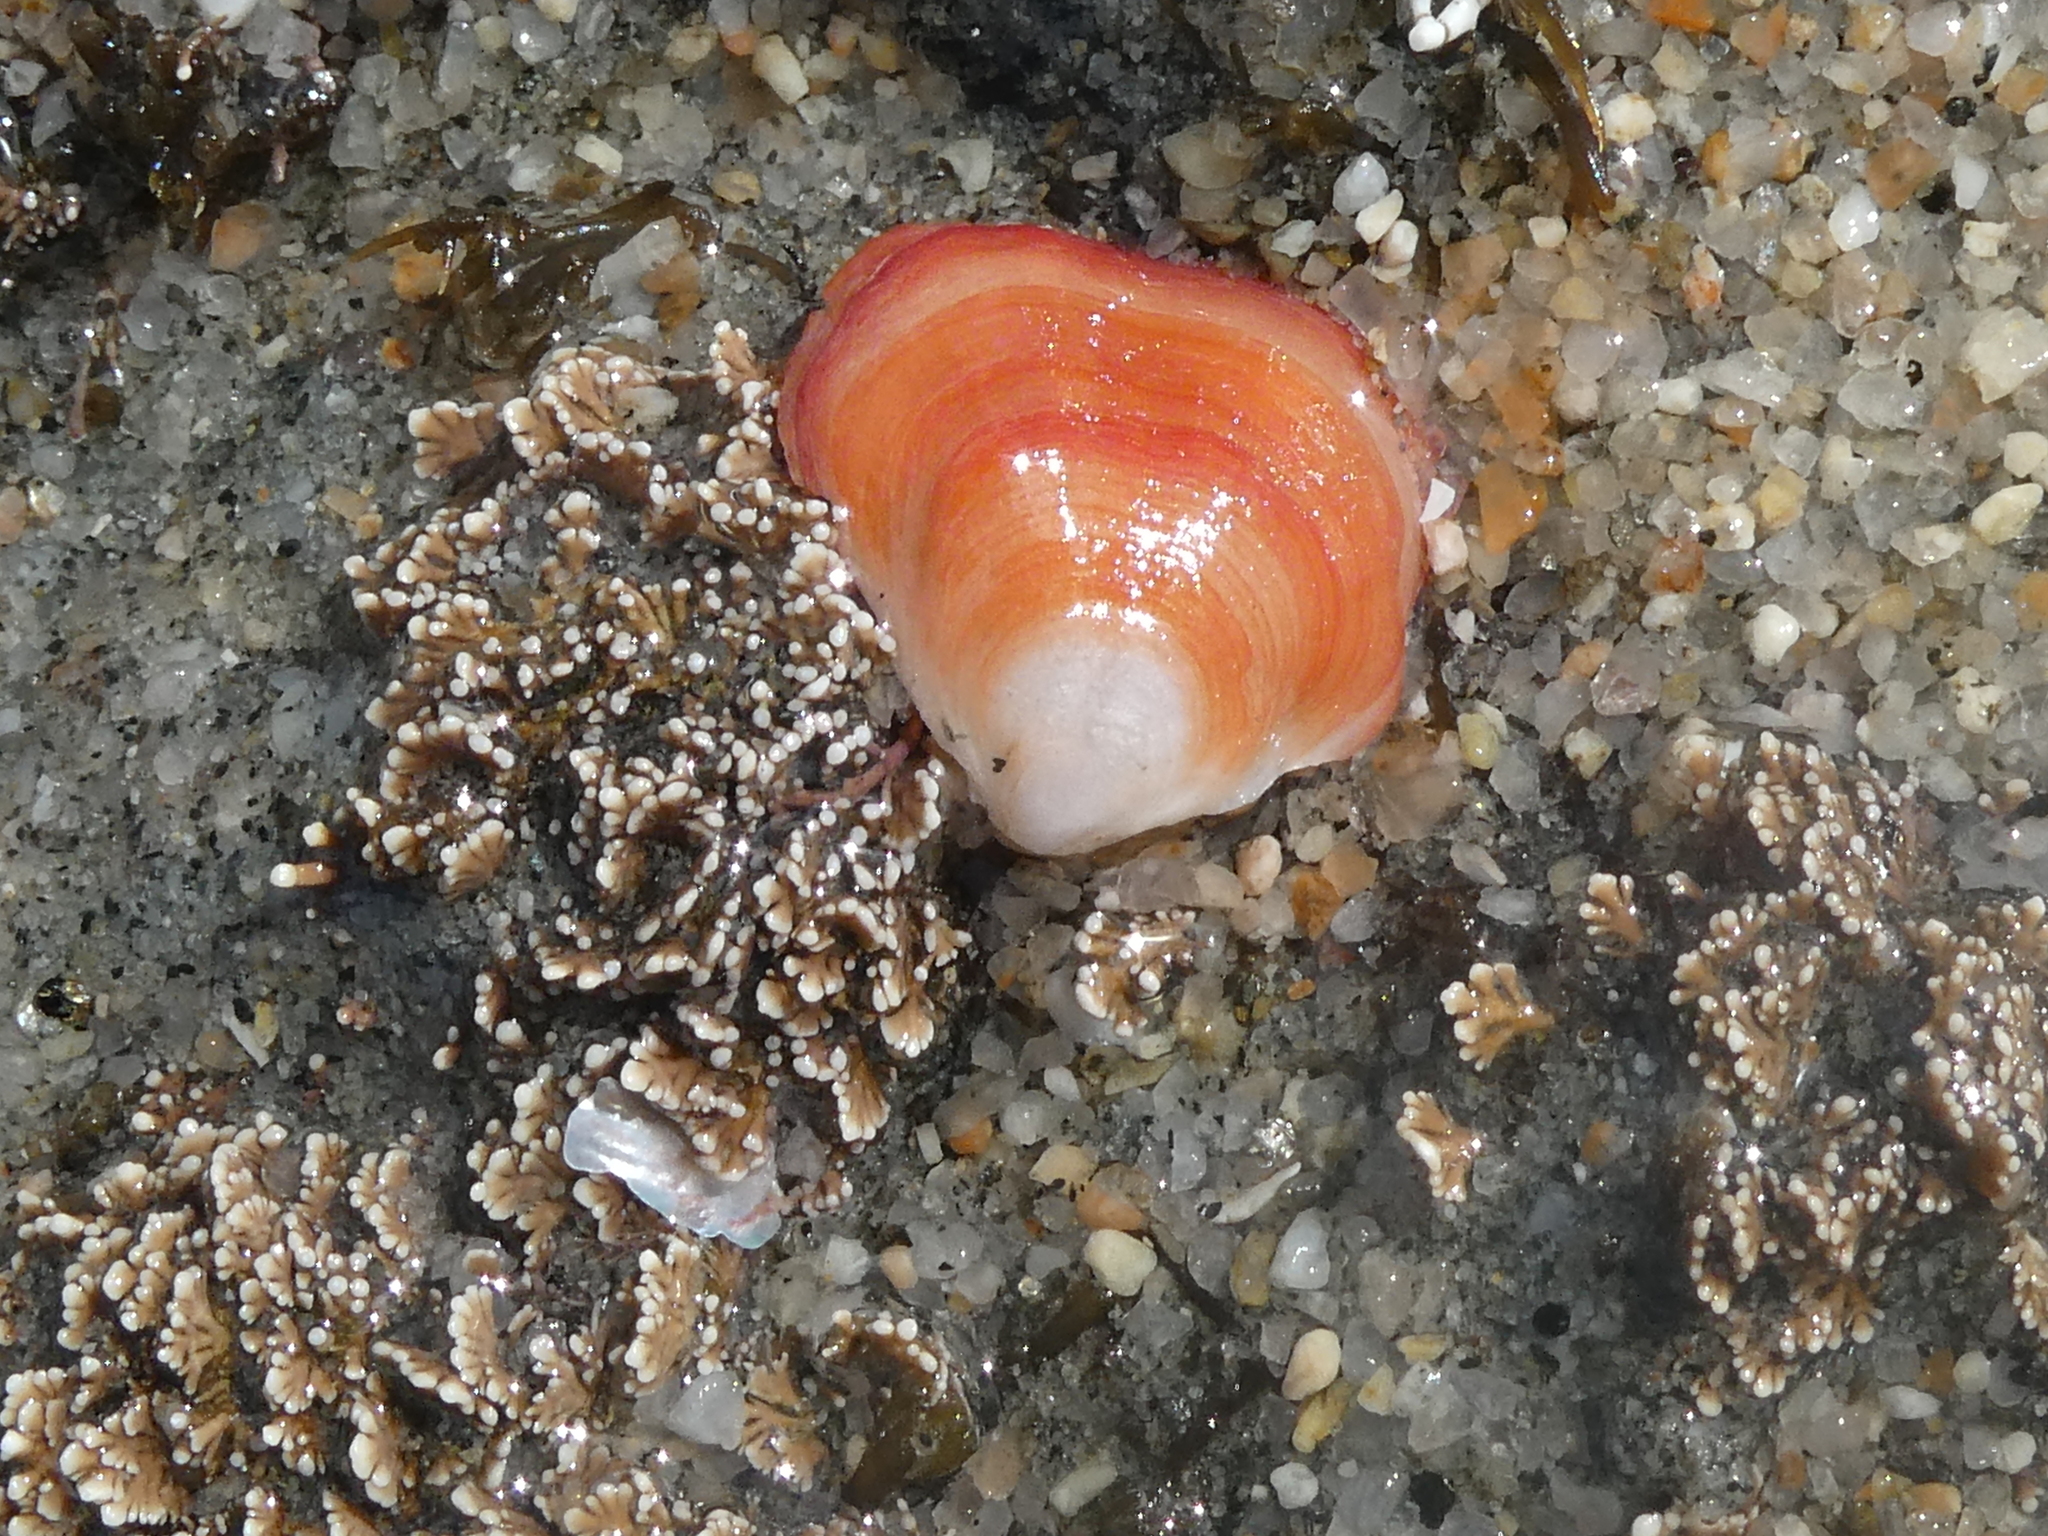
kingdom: Animalia
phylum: Brachiopoda
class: Rhynchonellata
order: Terebratulida
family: Terebratellidae
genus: Calloria
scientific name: Calloria inconspicua
